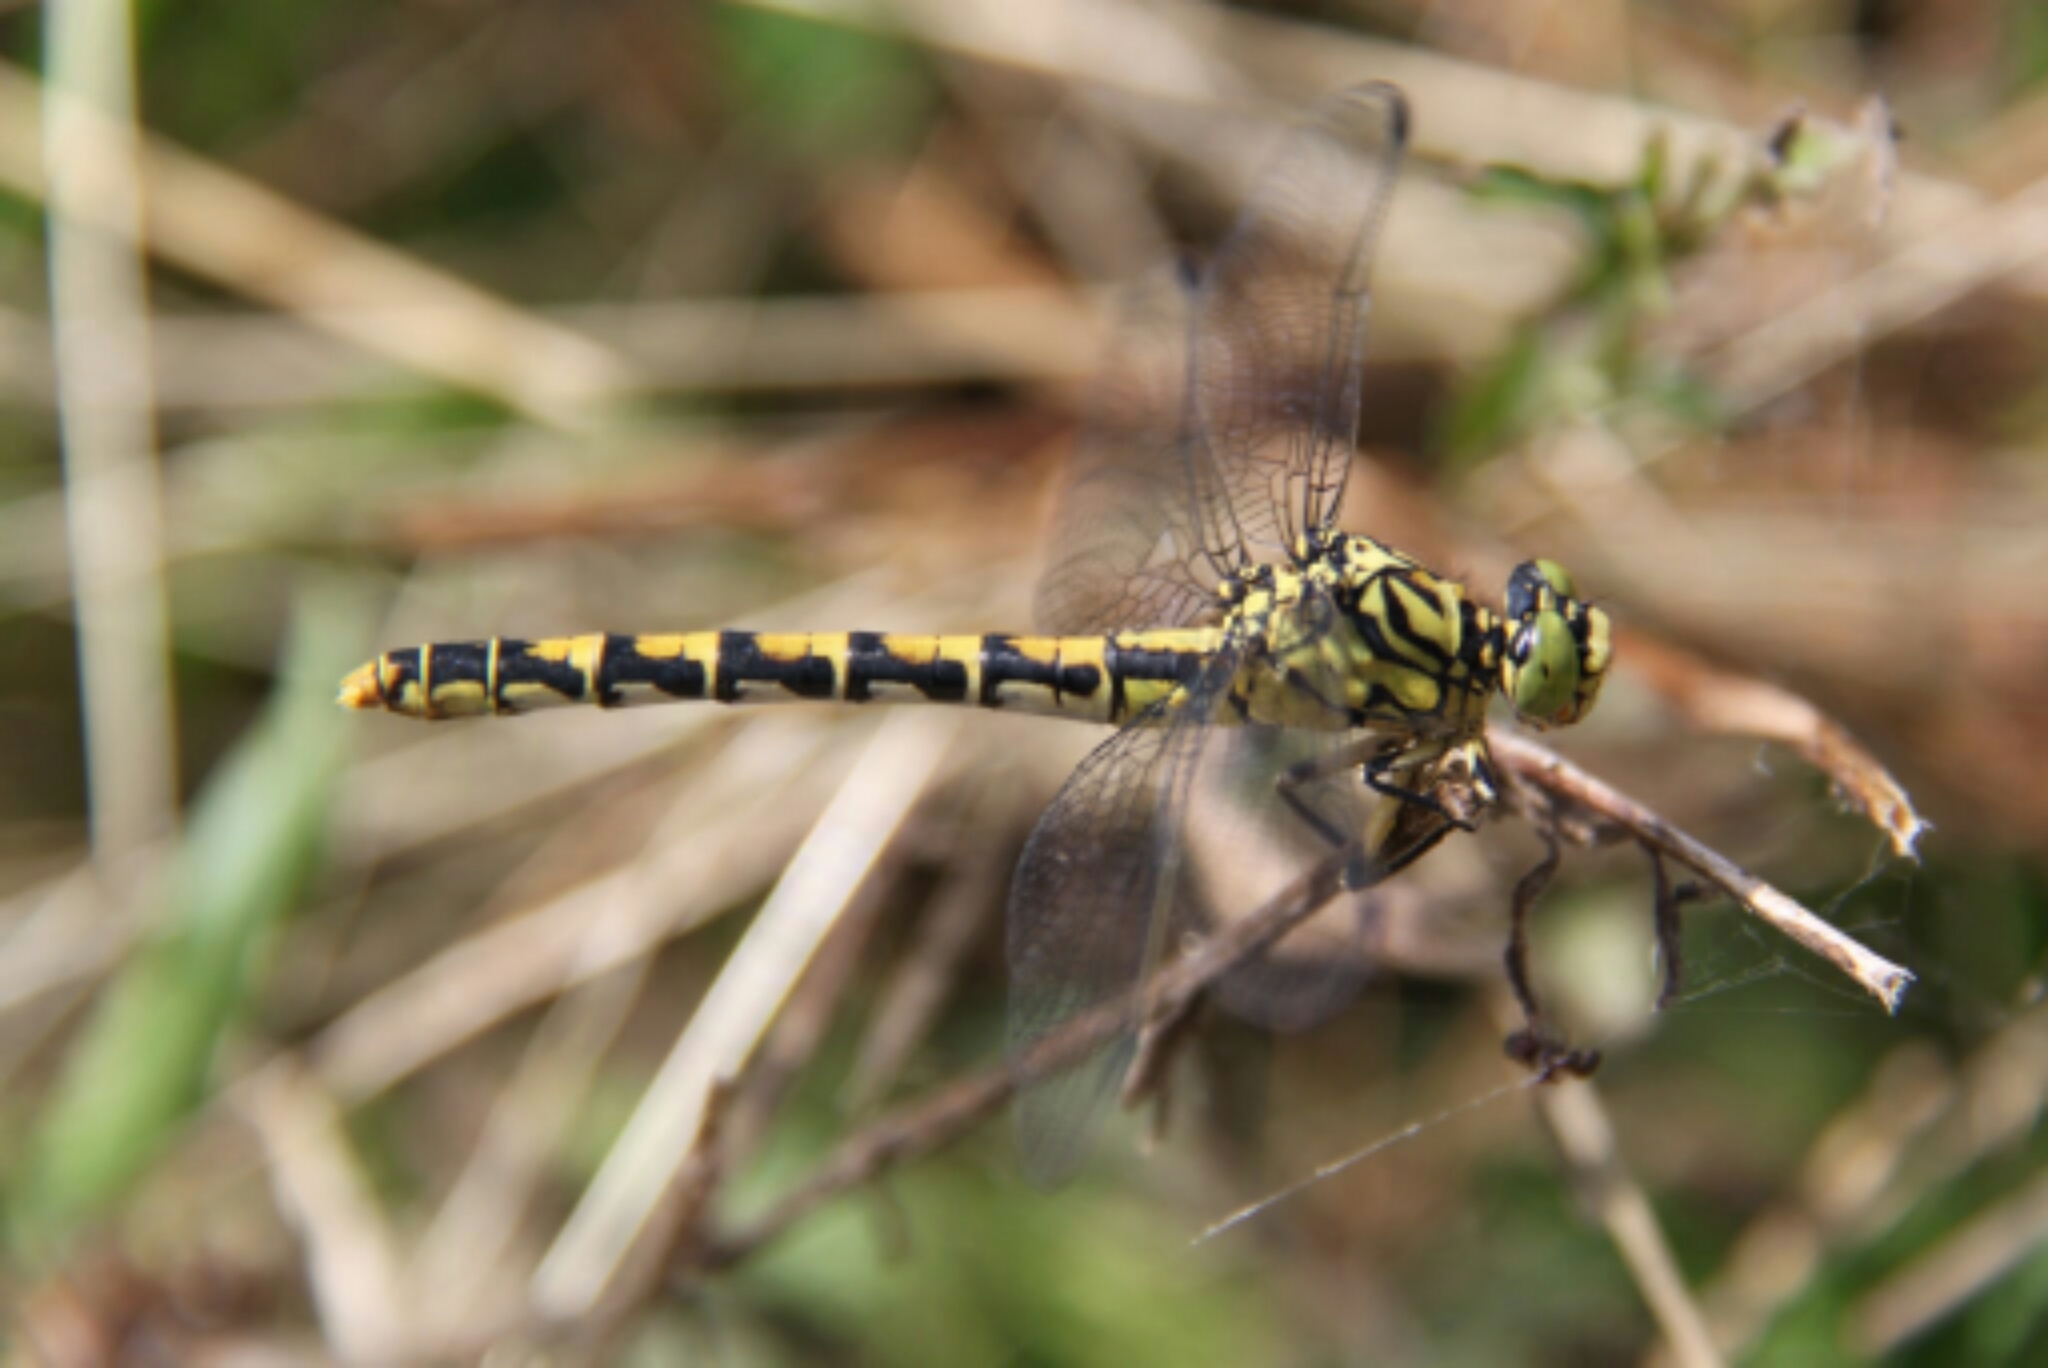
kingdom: Animalia
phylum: Arthropoda
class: Insecta
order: Odonata
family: Gomphidae
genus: Onychogomphus
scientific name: Onychogomphus forcipatus
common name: Small pincertail
